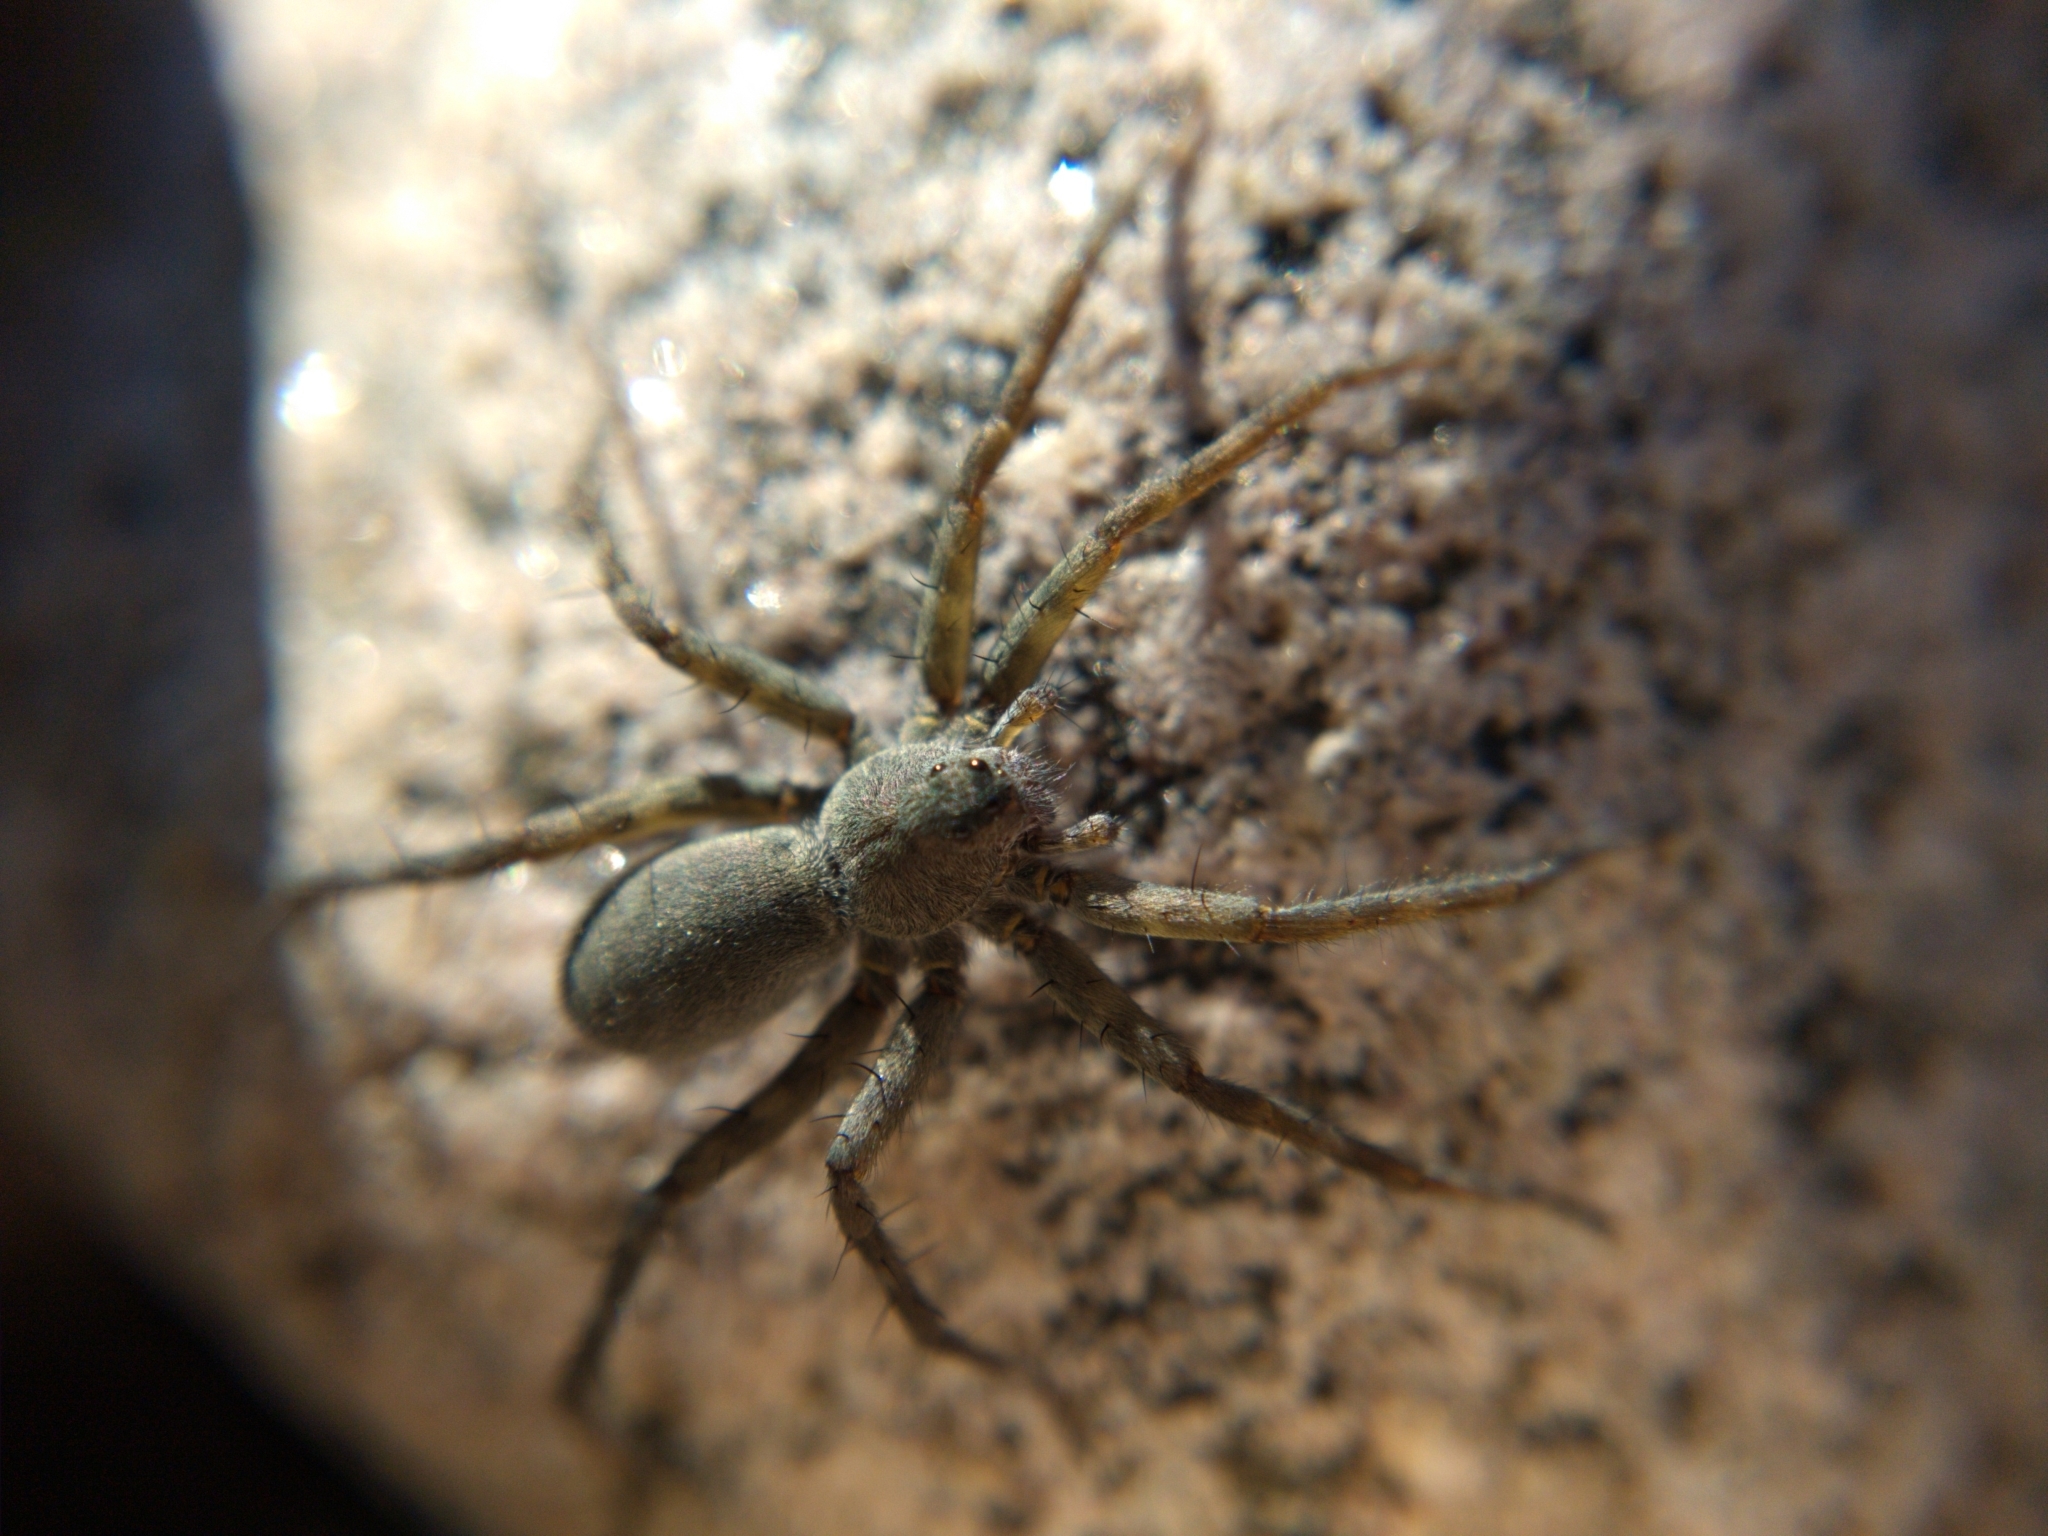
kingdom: Animalia
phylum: Arthropoda
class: Arachnida
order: Araneae
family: Lycosidae
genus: Pardosa
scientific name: Pardosa lapidicina
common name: Stone spider
